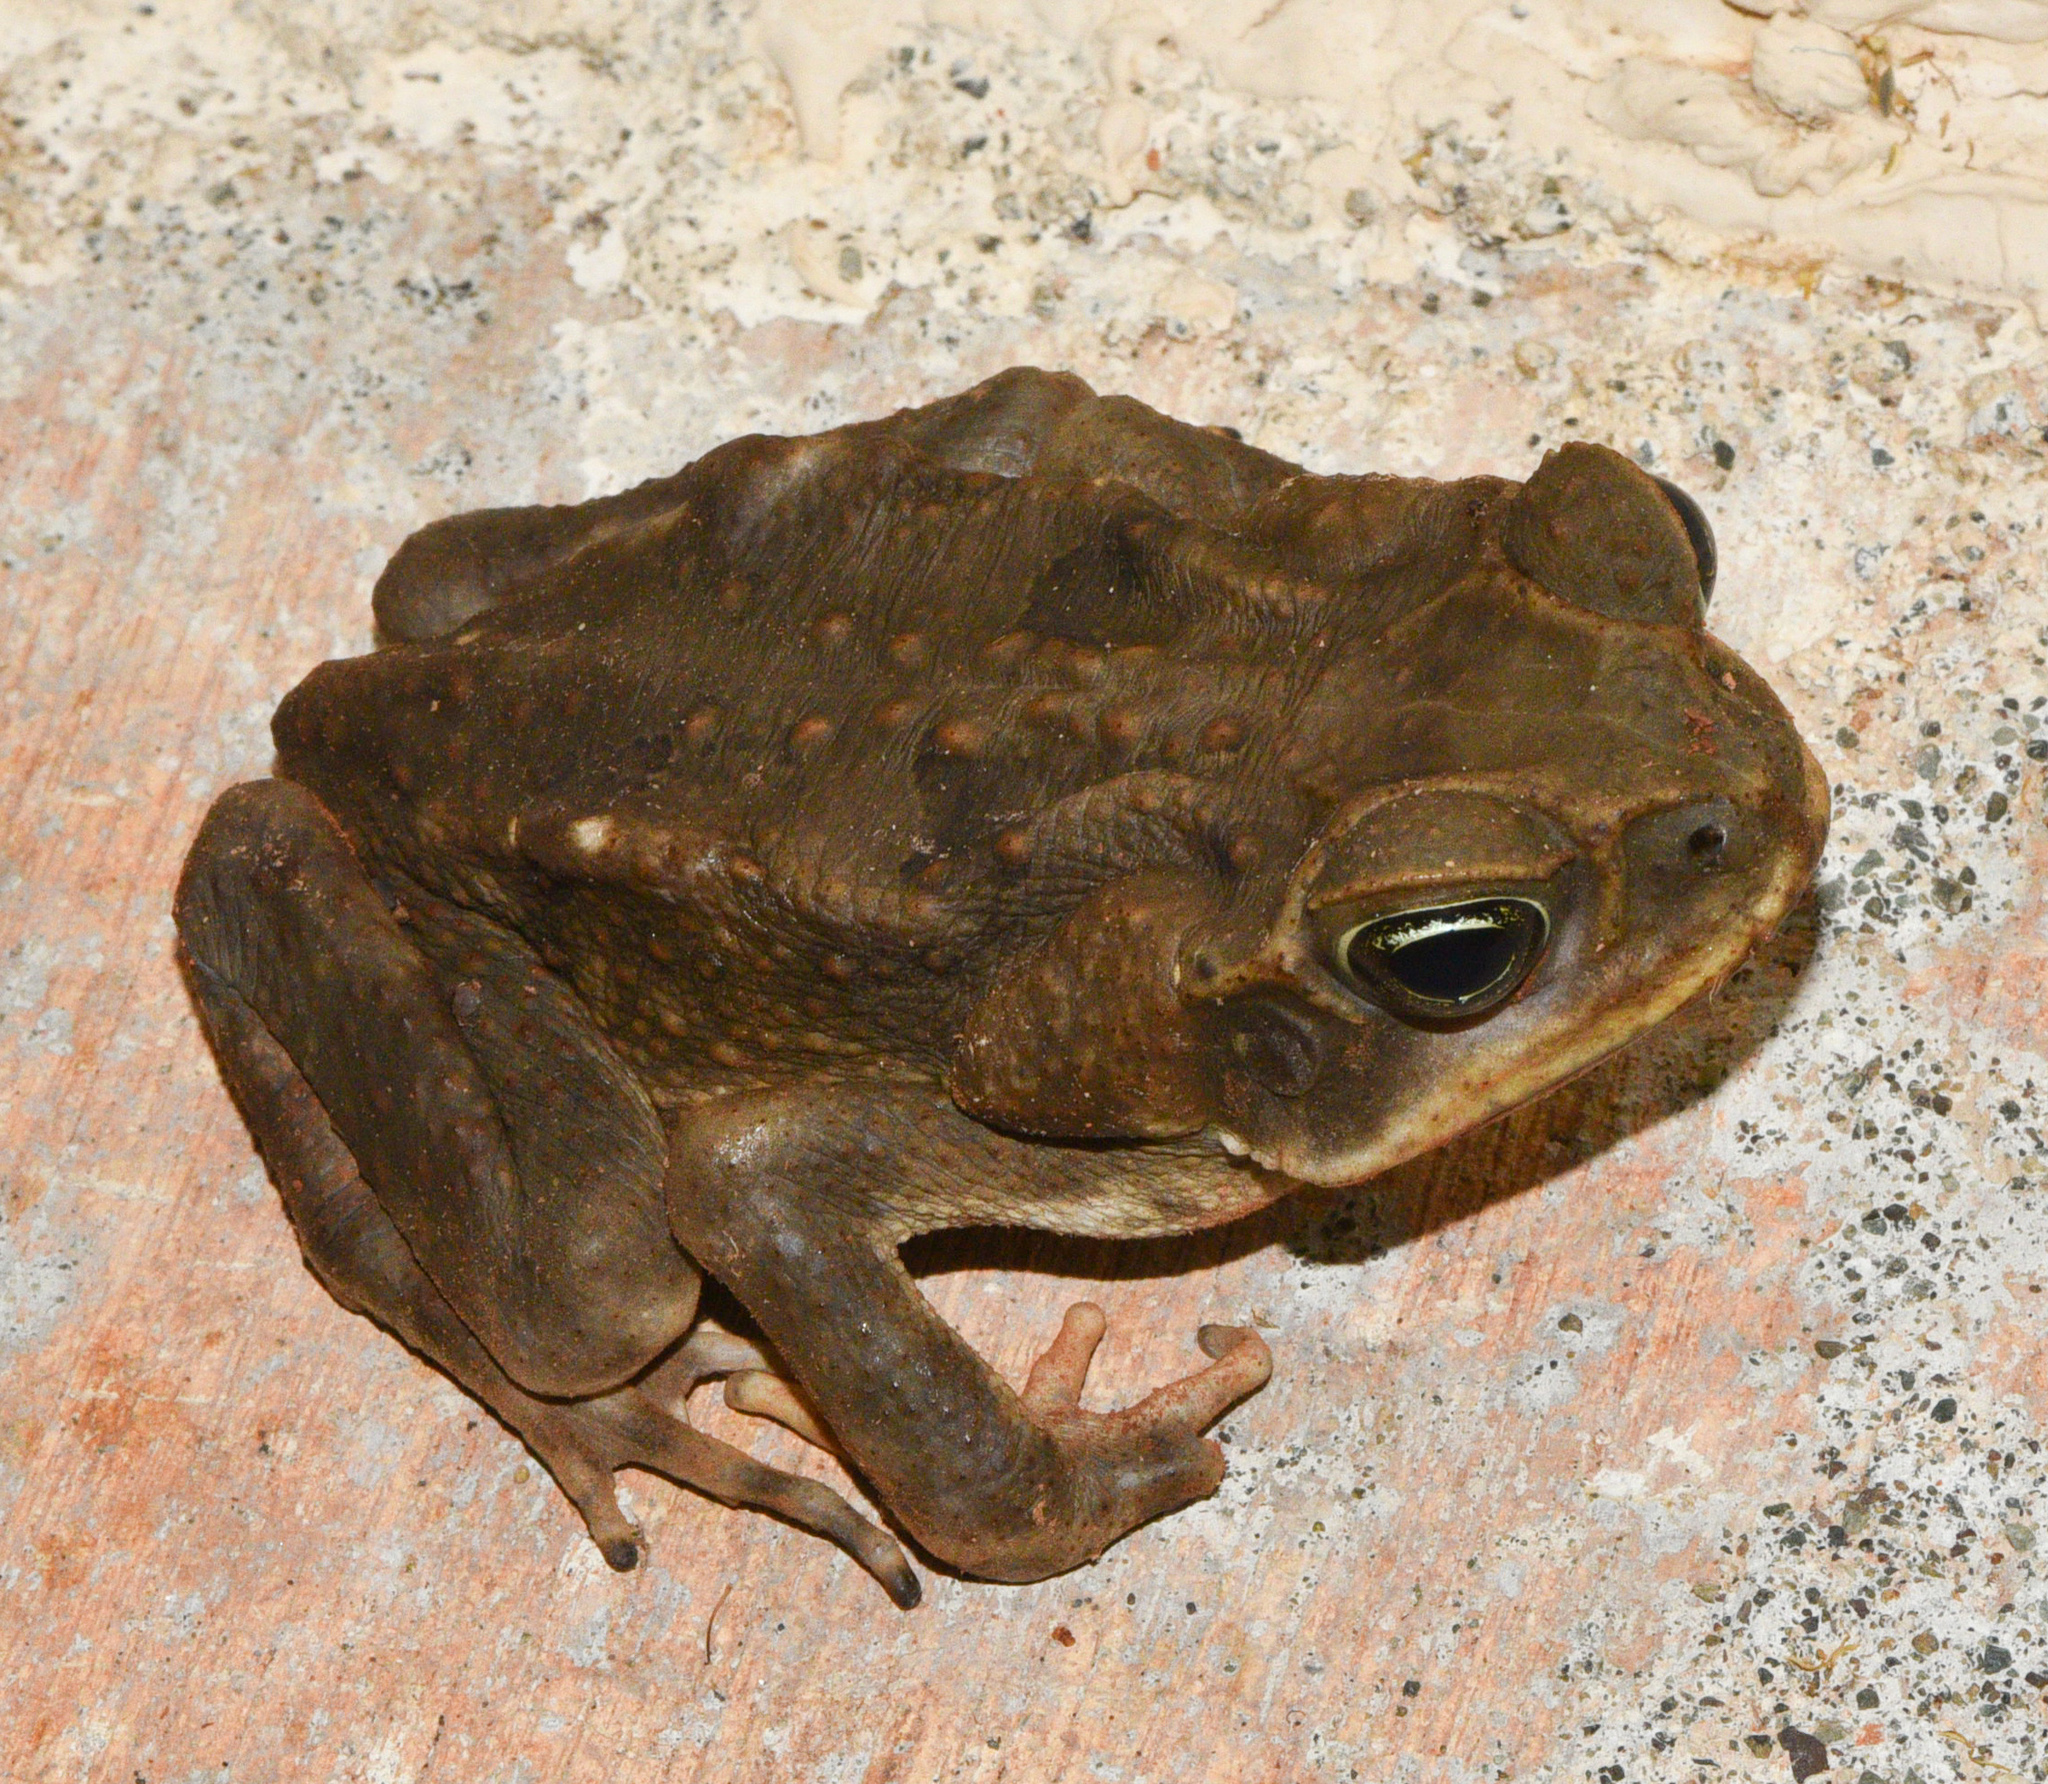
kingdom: Animalia
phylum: Chordata
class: Amphibia
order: Anura
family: Bufonidae
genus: Rhinella
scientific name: Rhinella horribilis
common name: Mesoamerican cane toad
